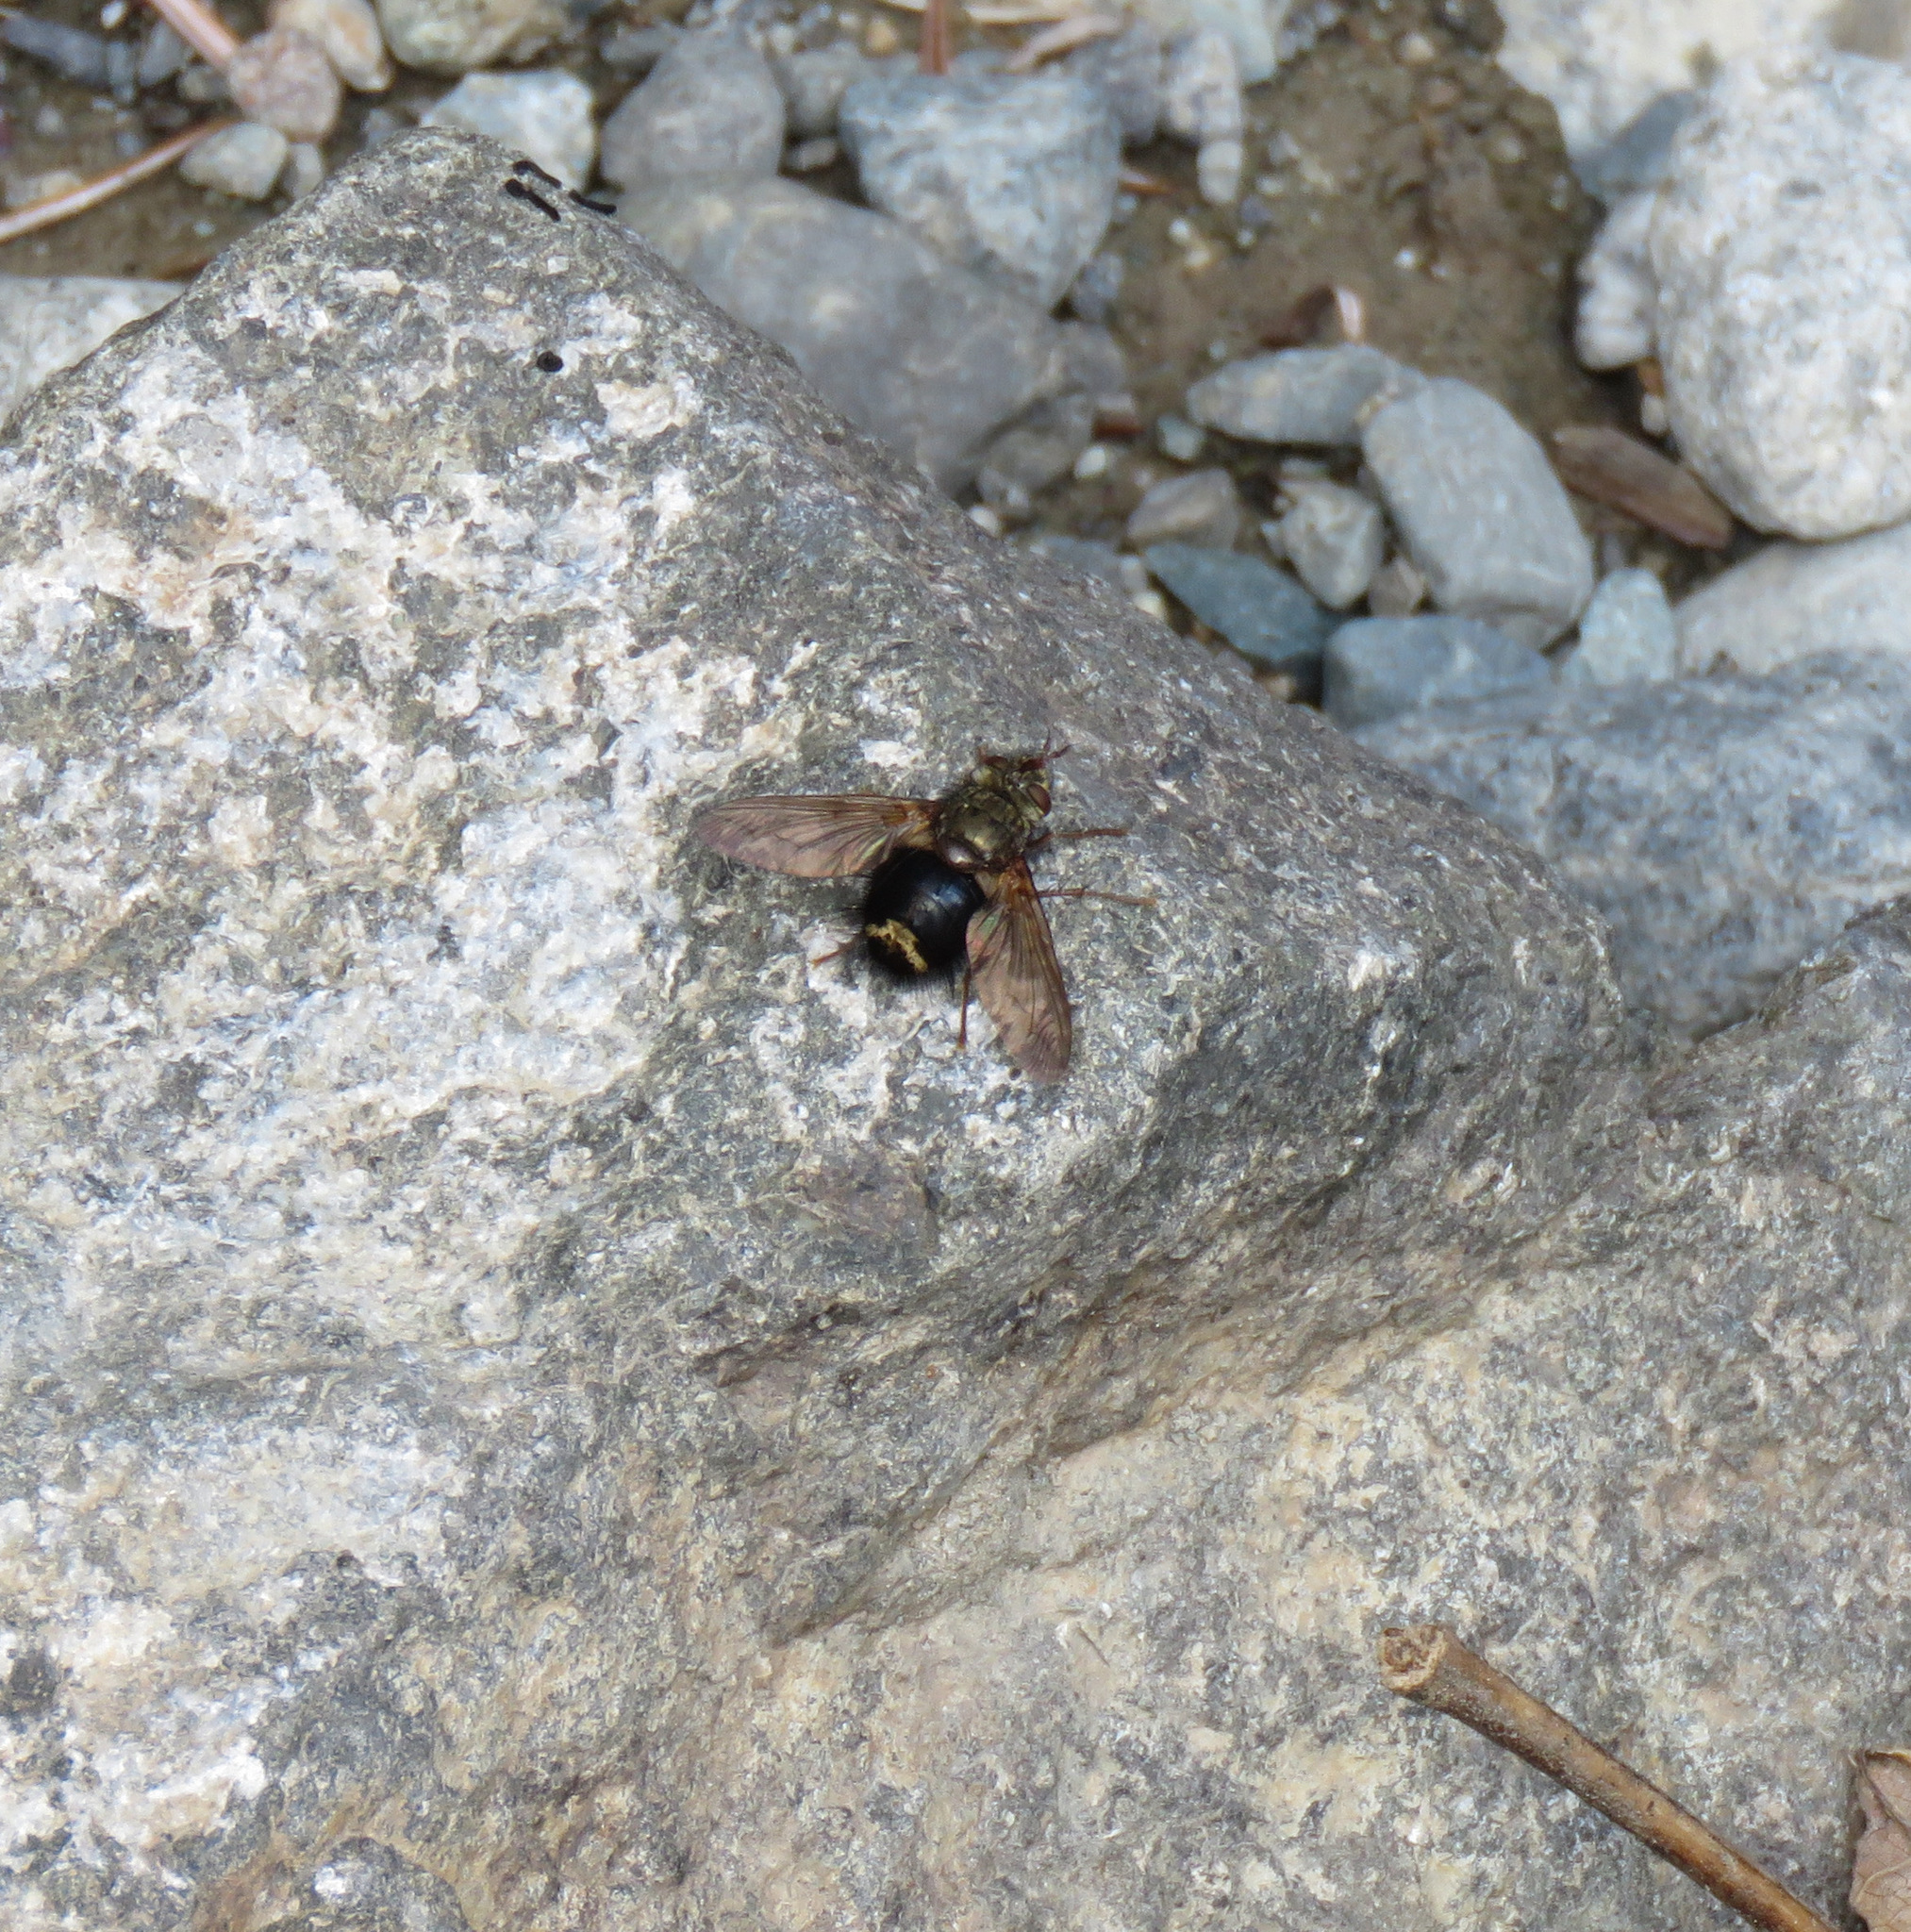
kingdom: Animalia
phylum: Arthropoda
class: Insecta
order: Diptera
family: Tachinidae
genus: Epalpus
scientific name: Epalpus signifer
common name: Early tachinid fly
